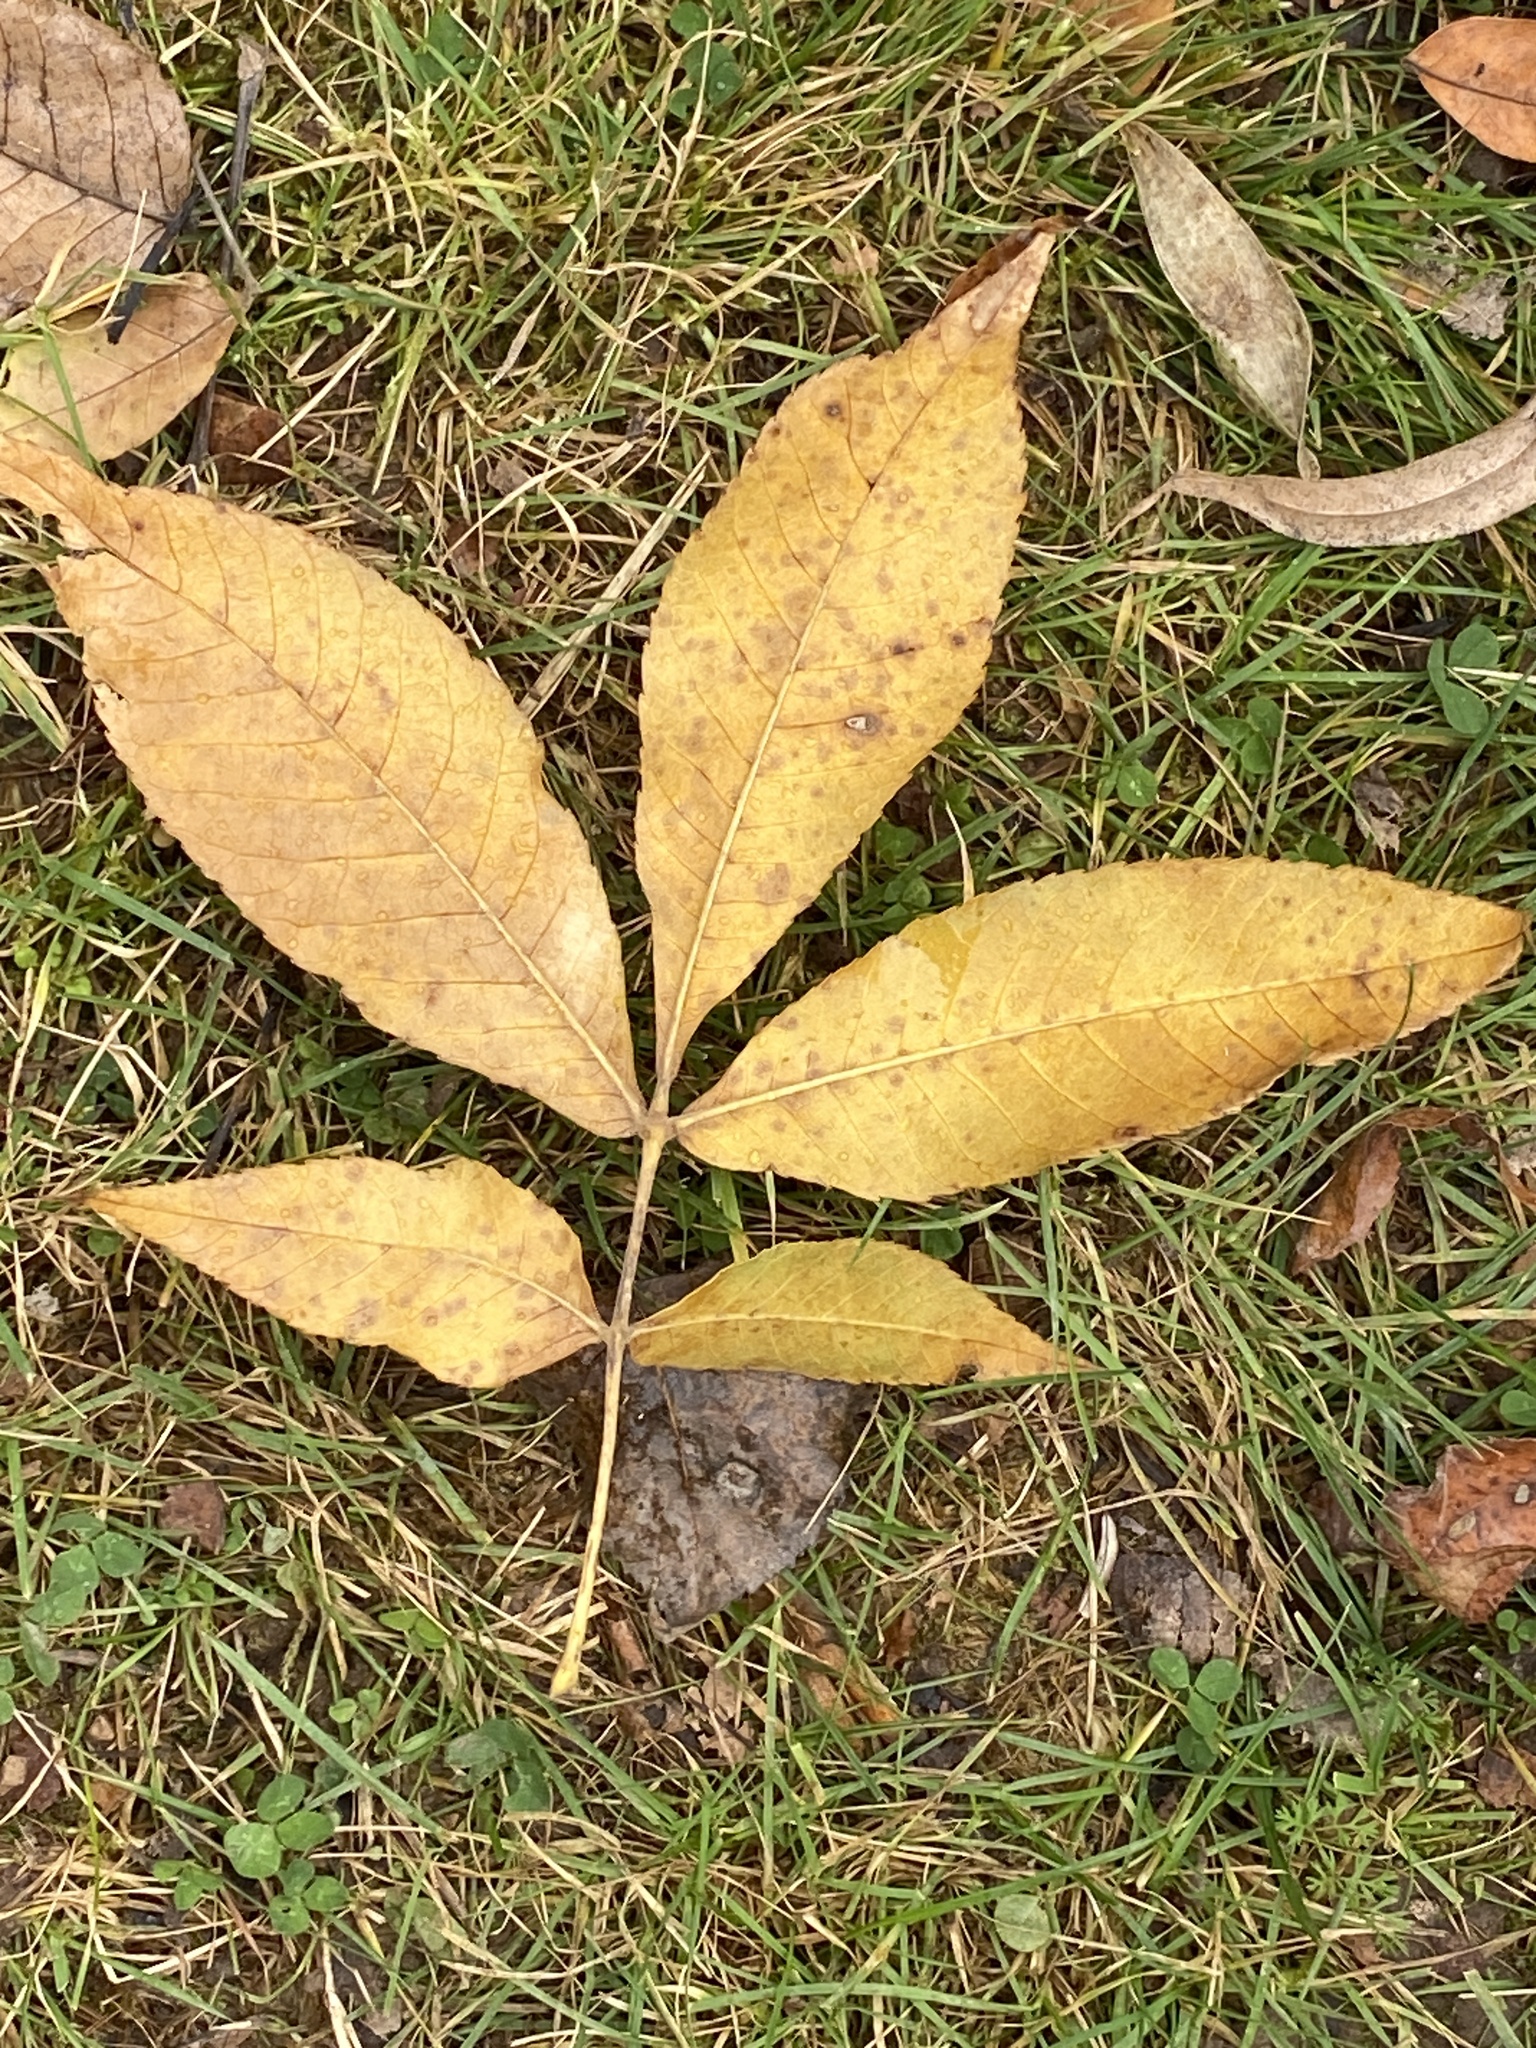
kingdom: Plantae
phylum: Tracheophyta
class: Magnoliopsida
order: Fagales
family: Juglandaceae
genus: Carya
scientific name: Carya cordiformis
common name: Bitternut hickory
